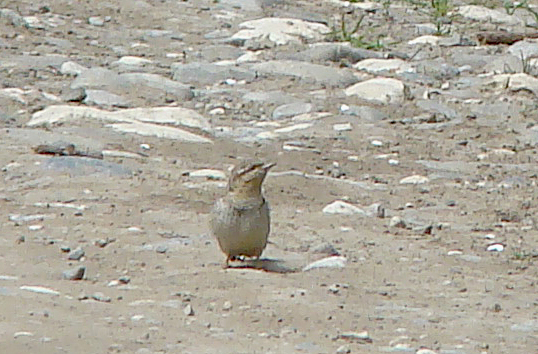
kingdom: Animalia
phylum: Chordata
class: Aves
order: Piciformes
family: Picidae
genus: Jynx
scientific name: Jynx torquilla
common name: Eurasian wryneck
